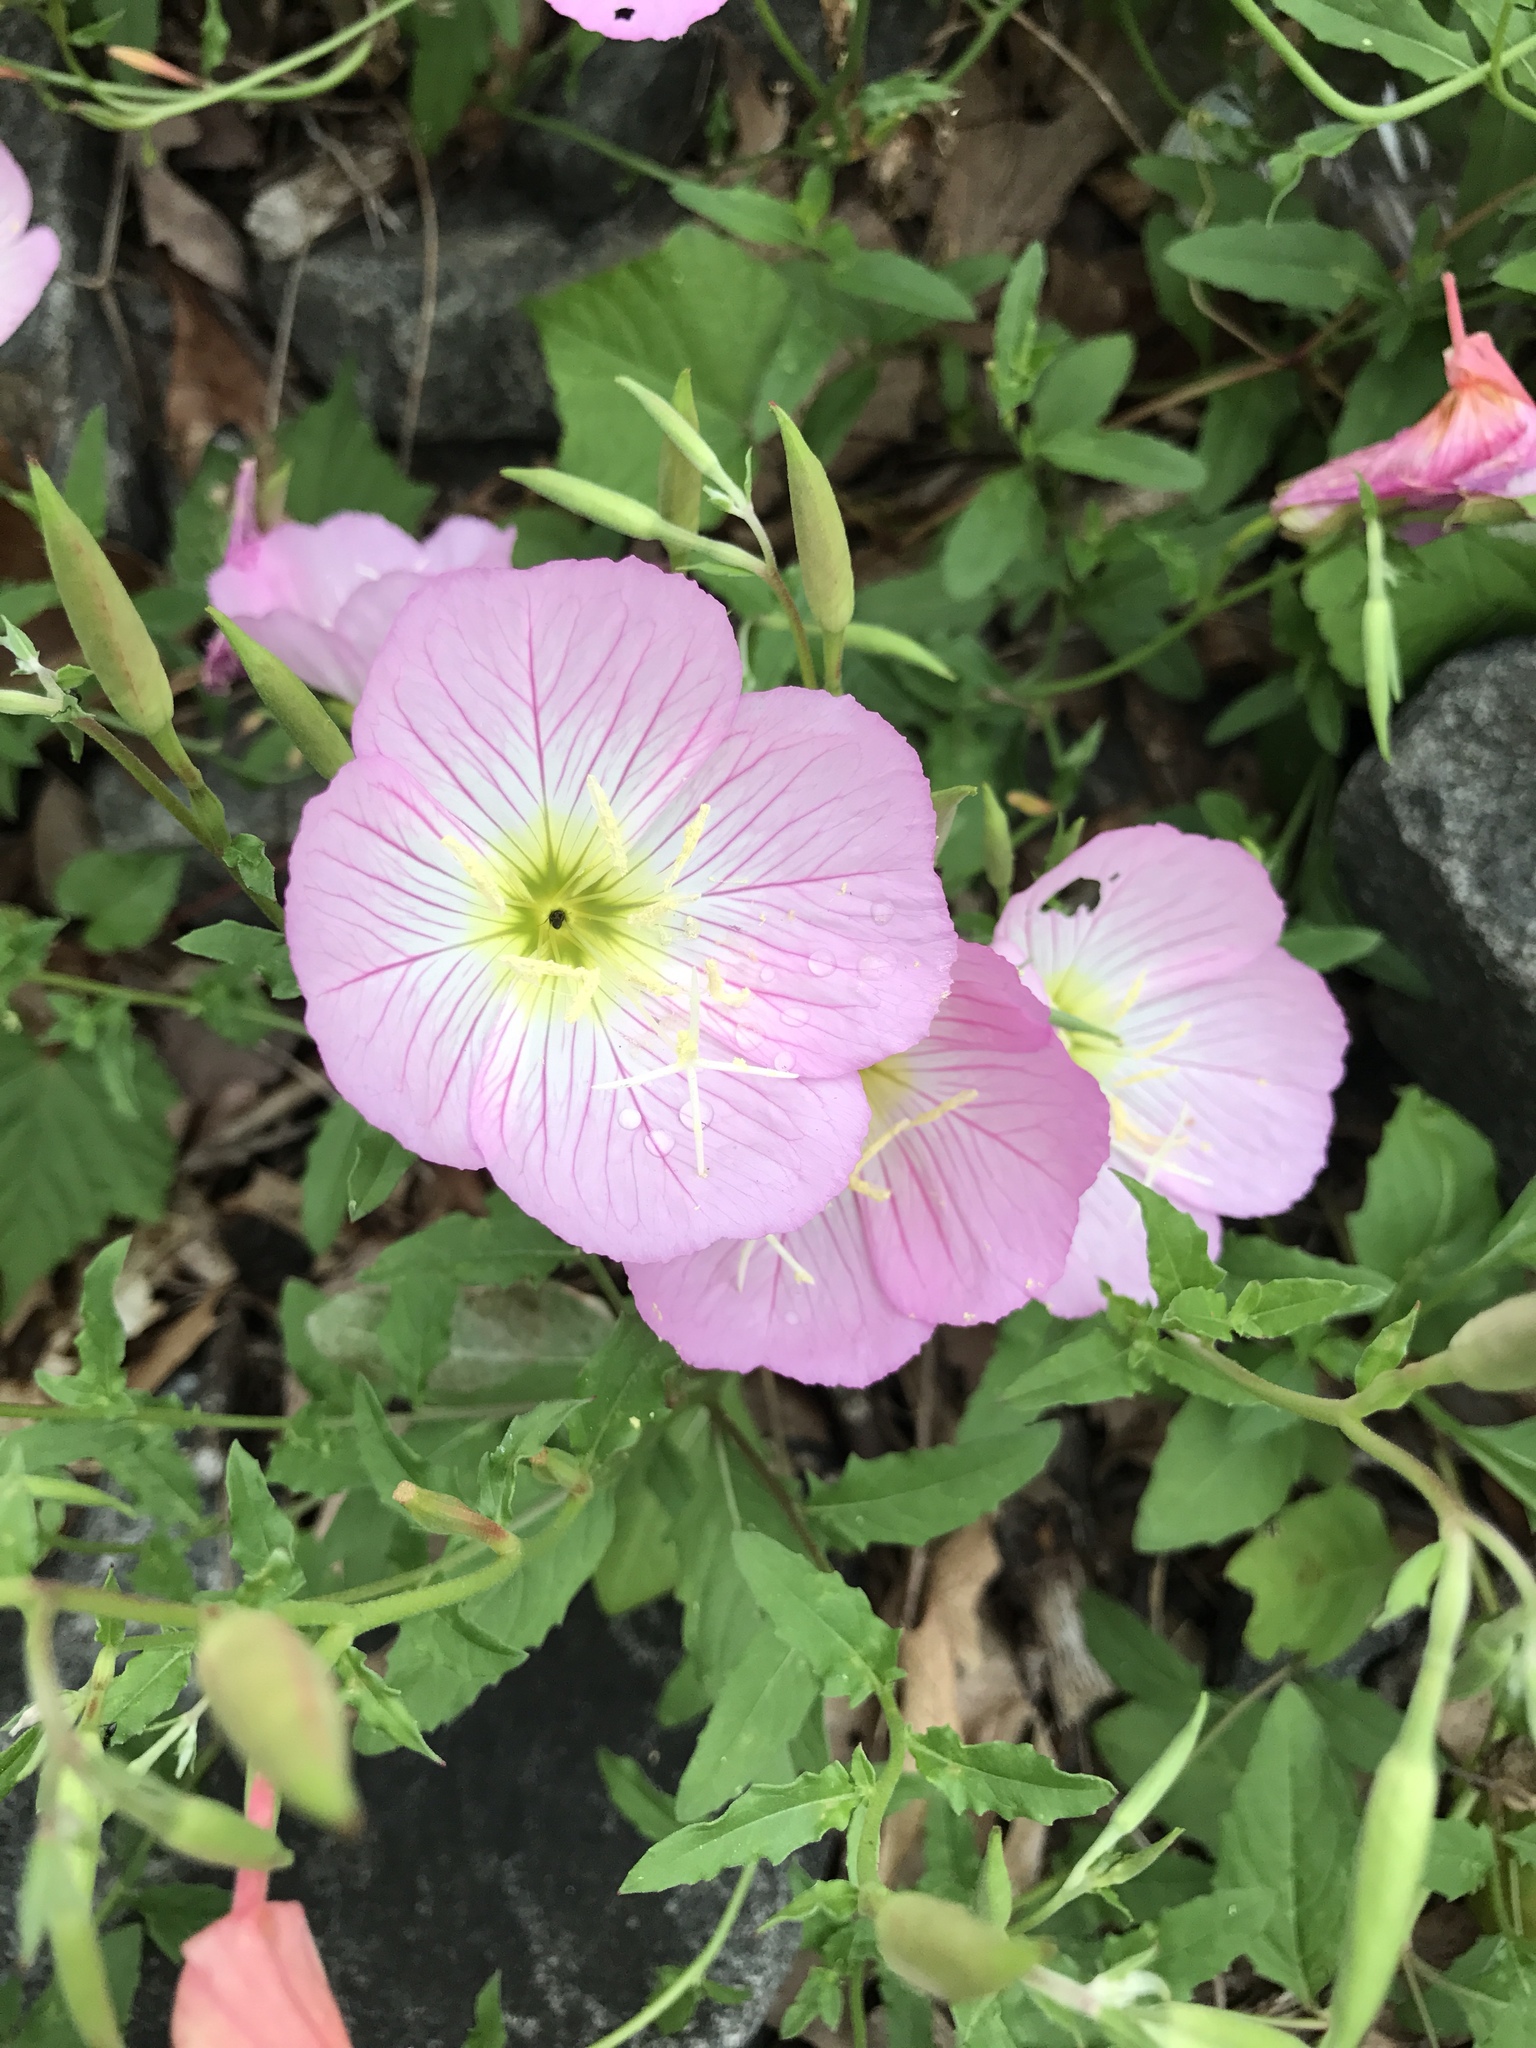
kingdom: Plantae
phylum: Tracheophyta
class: Magnoliopsida
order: Myrtales
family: Onagraceae
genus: Oenothera
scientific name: Oenothera speciosa
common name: White evening-primrose
